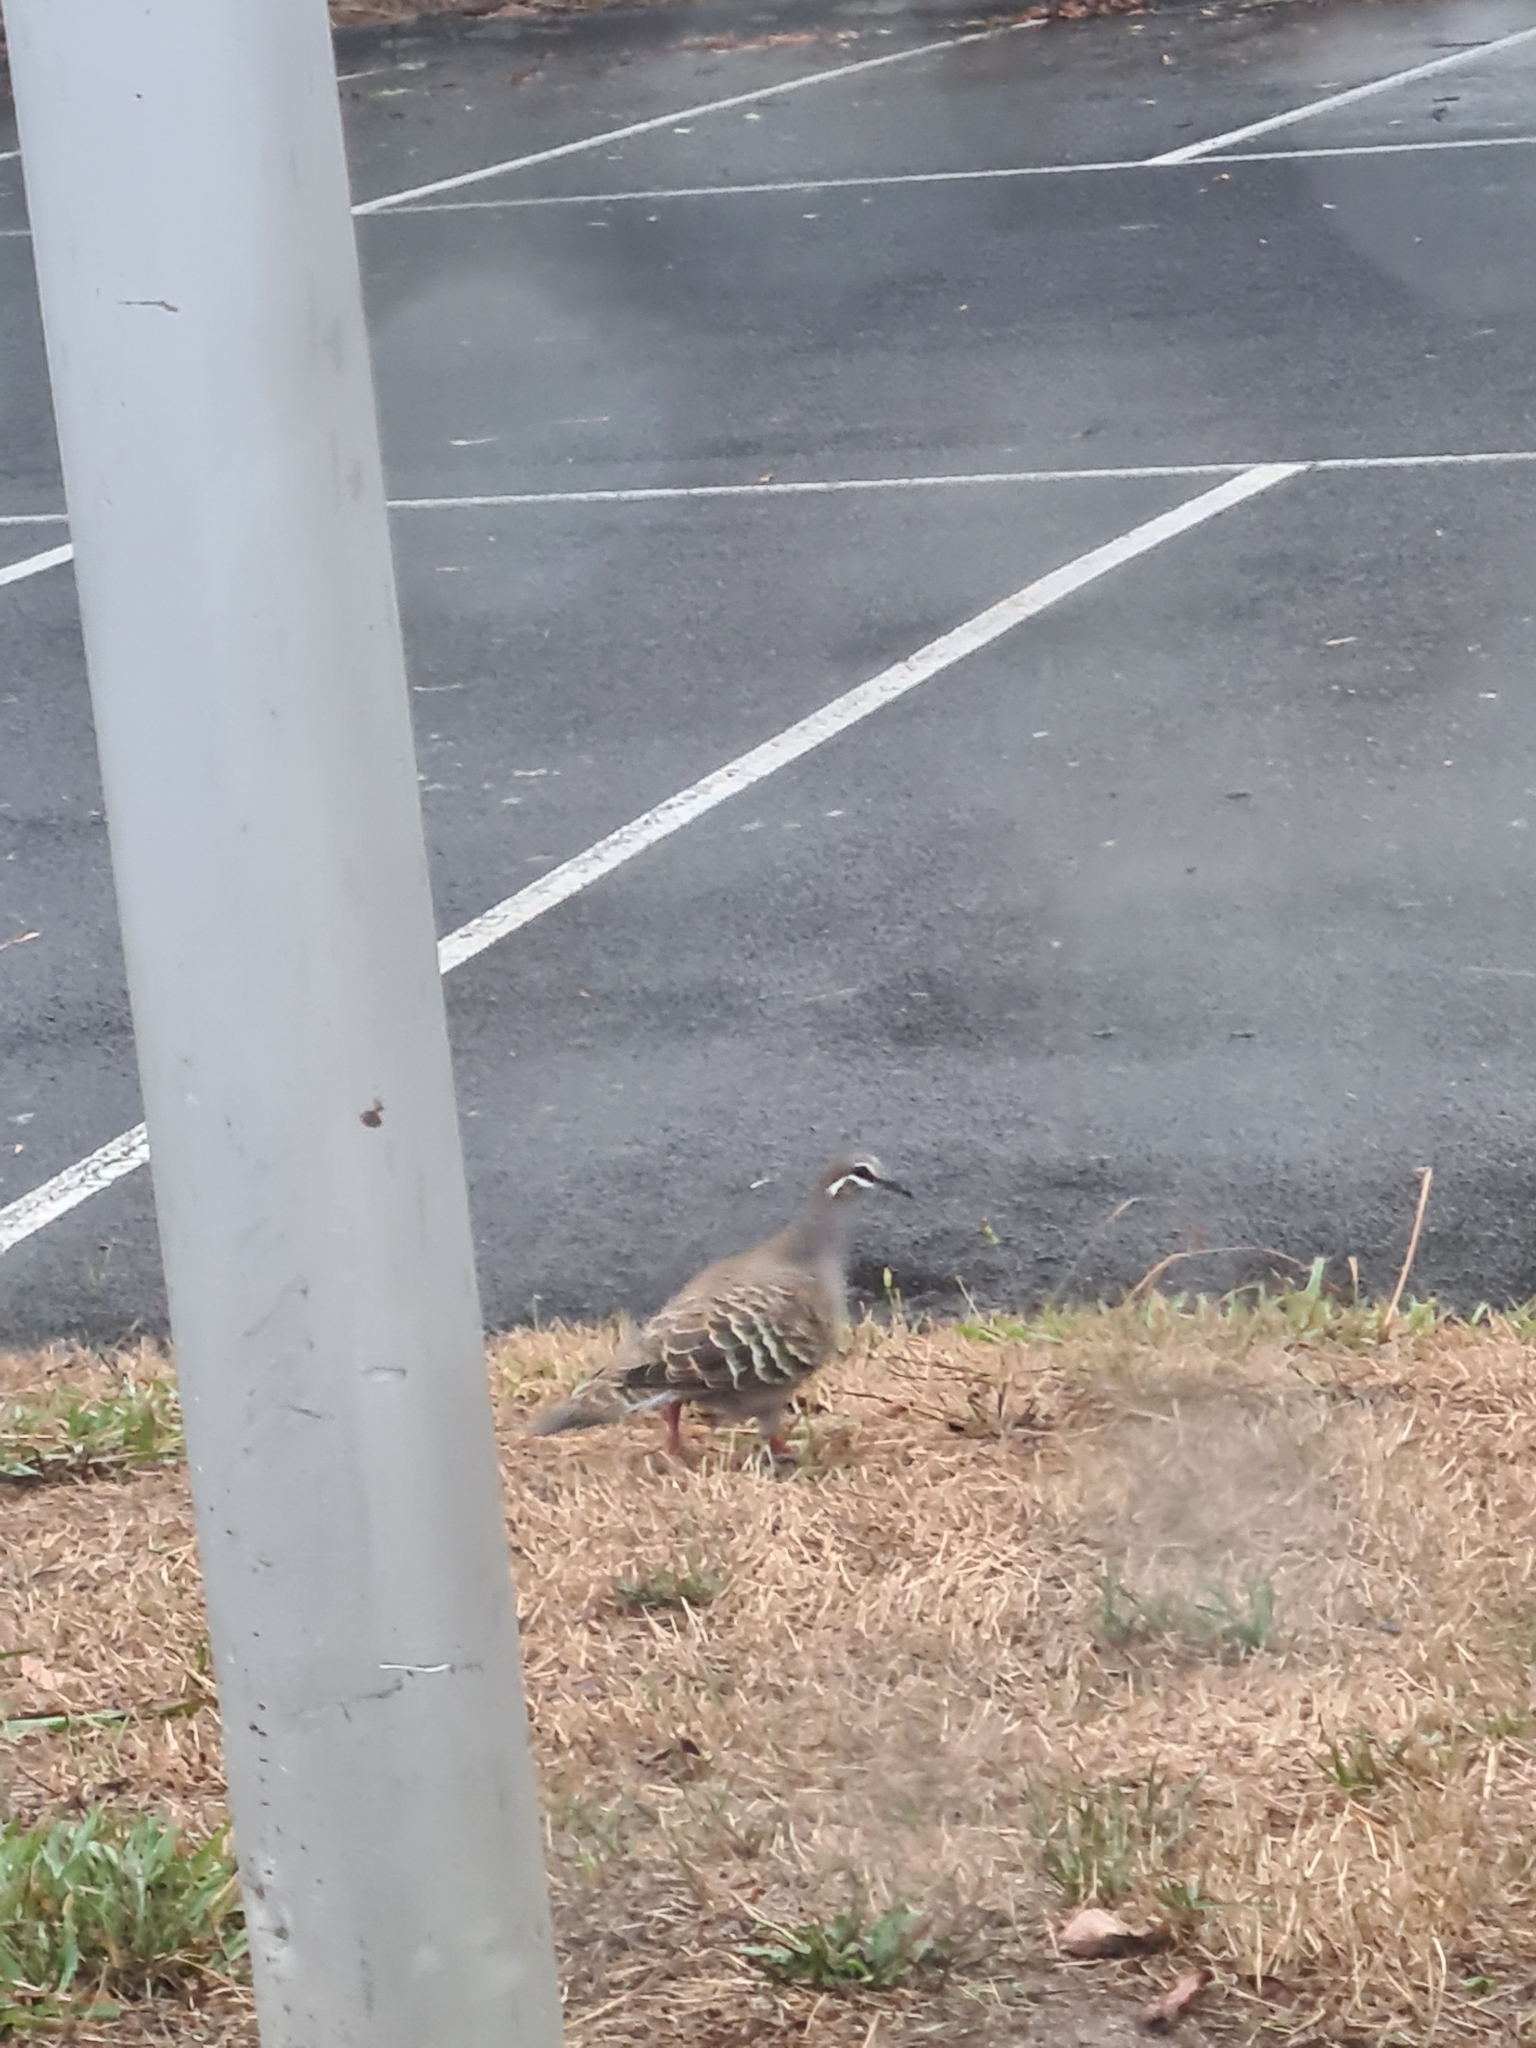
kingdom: Animalia
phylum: Chordata
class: Aves
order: Columbiformes
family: Columbidae
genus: Phaps
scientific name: Phaps chalcoptera
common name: Common bronzewing
